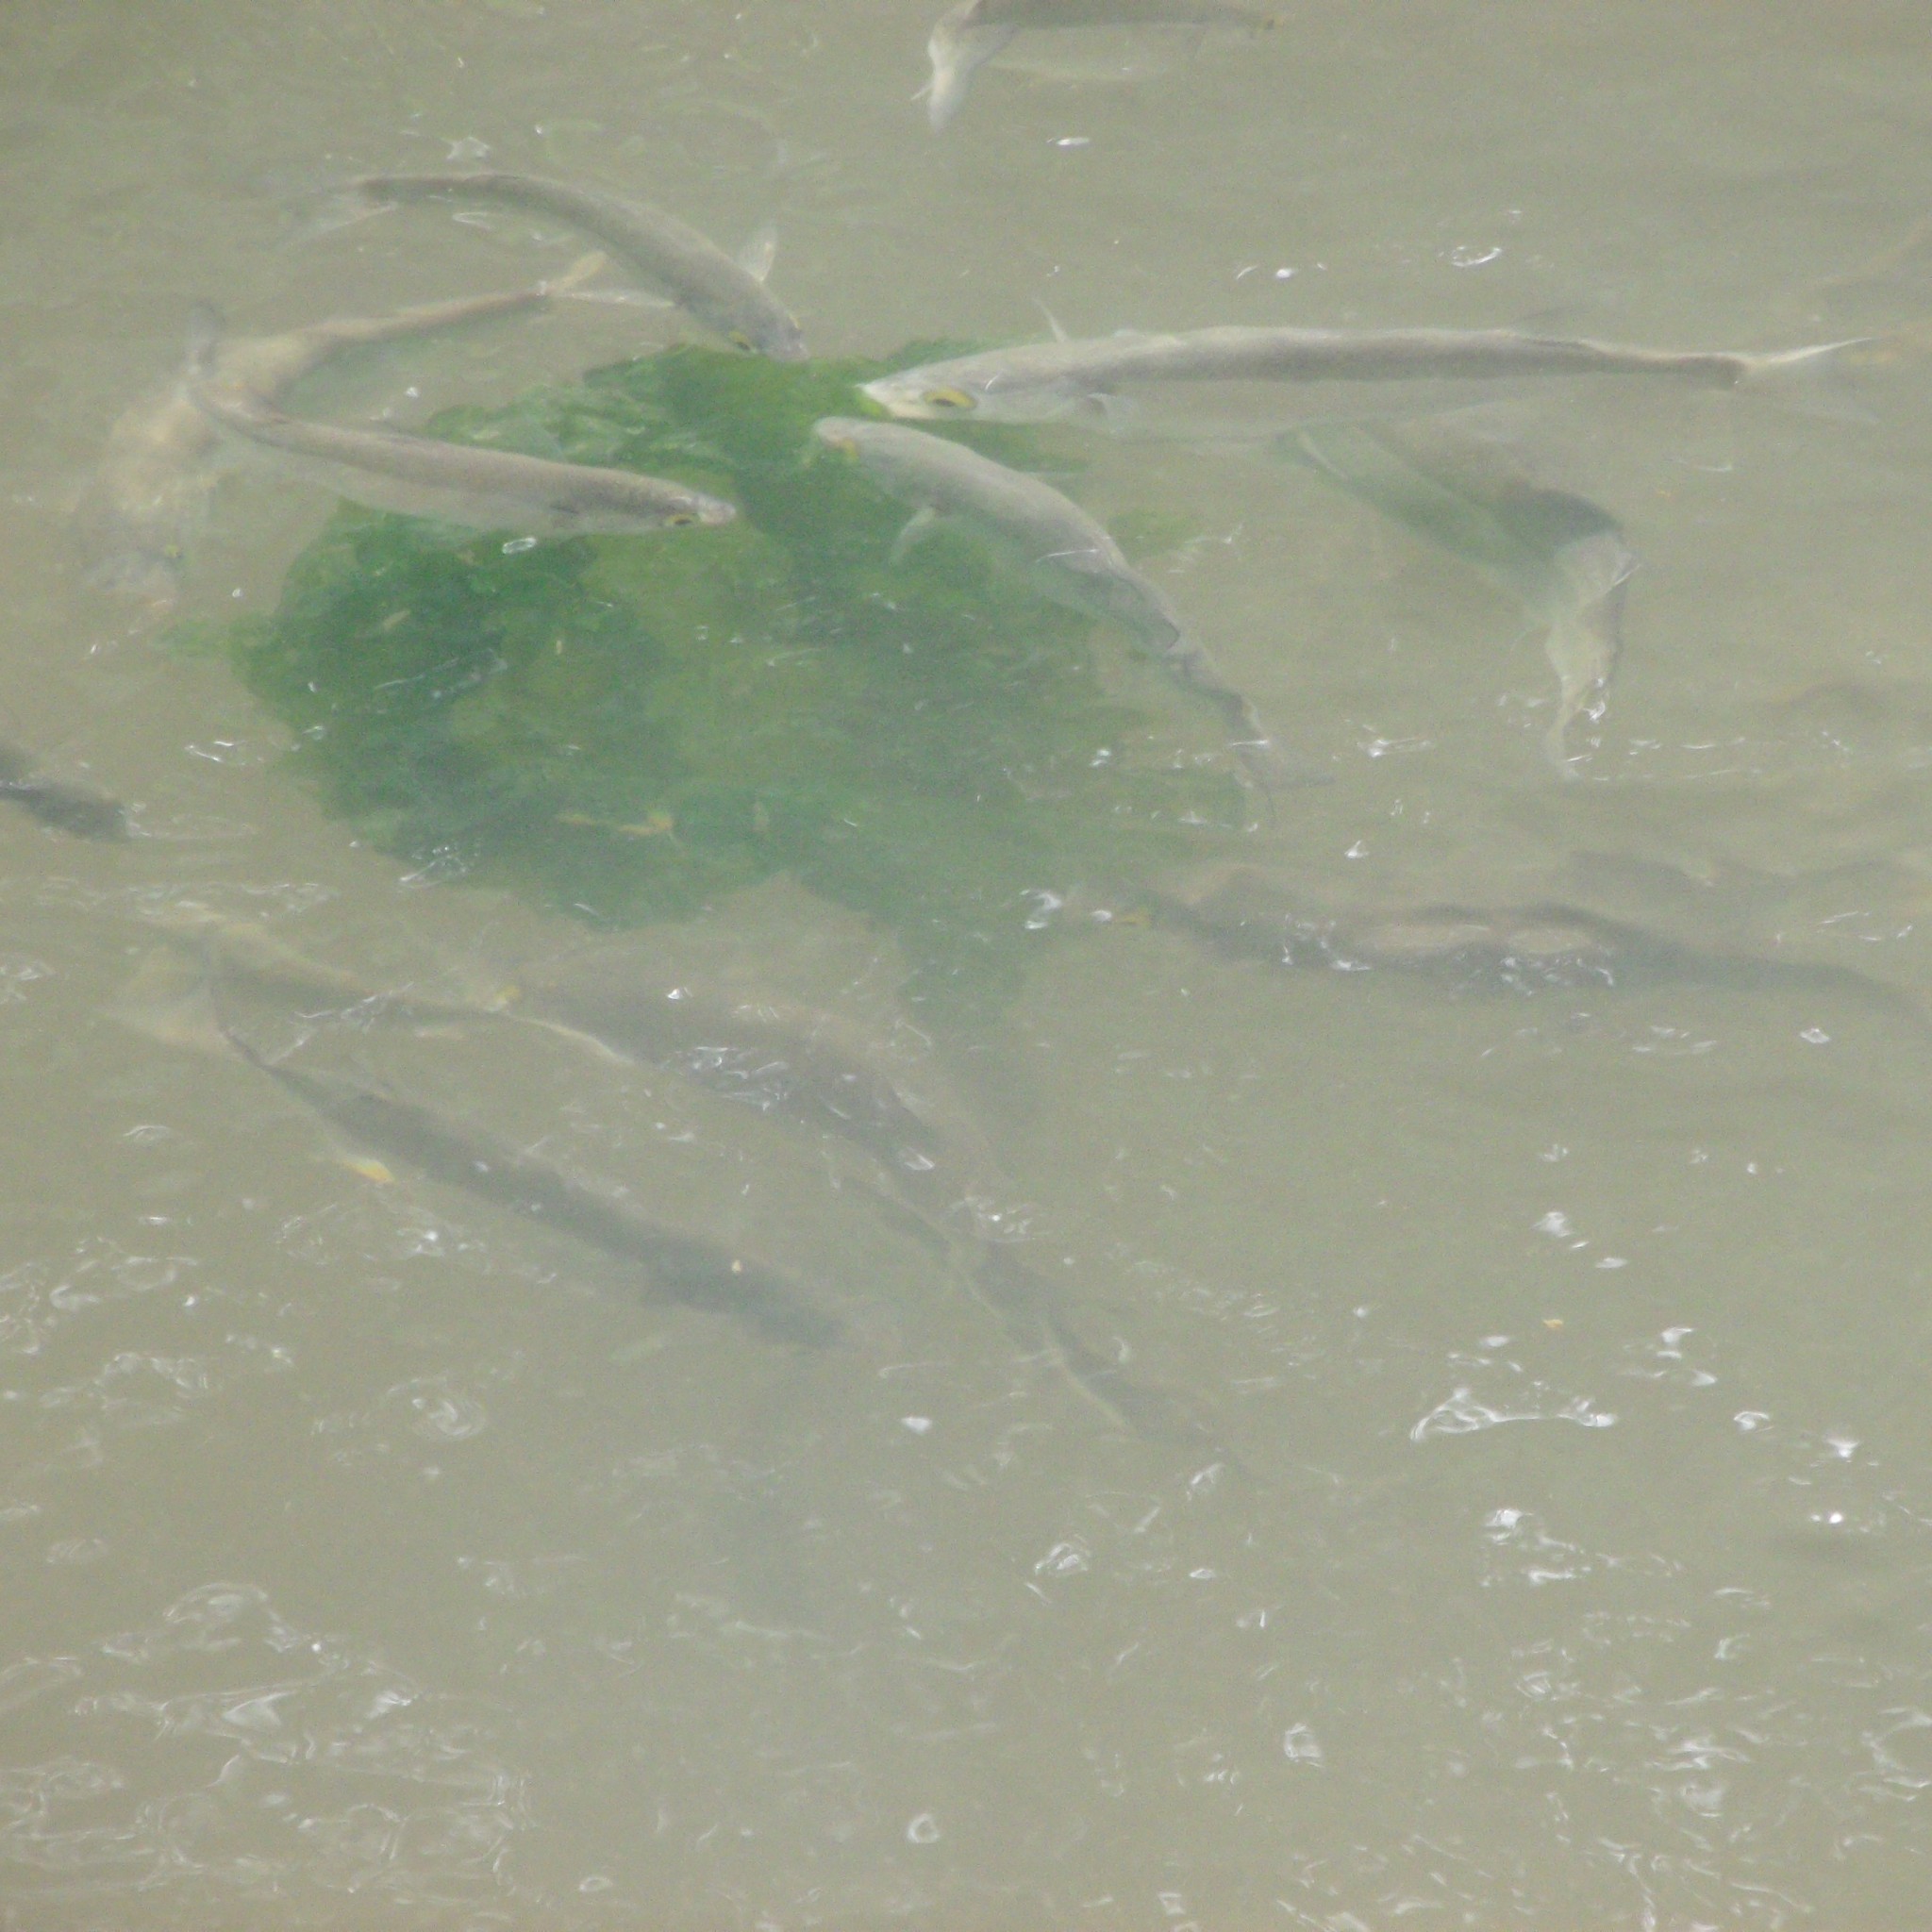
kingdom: Animalia
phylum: Chordata
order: Mugiliformes
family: Mugilidae
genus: Aldrichetta
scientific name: Aldrichetta forsteri
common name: Yellow-eye mullet
